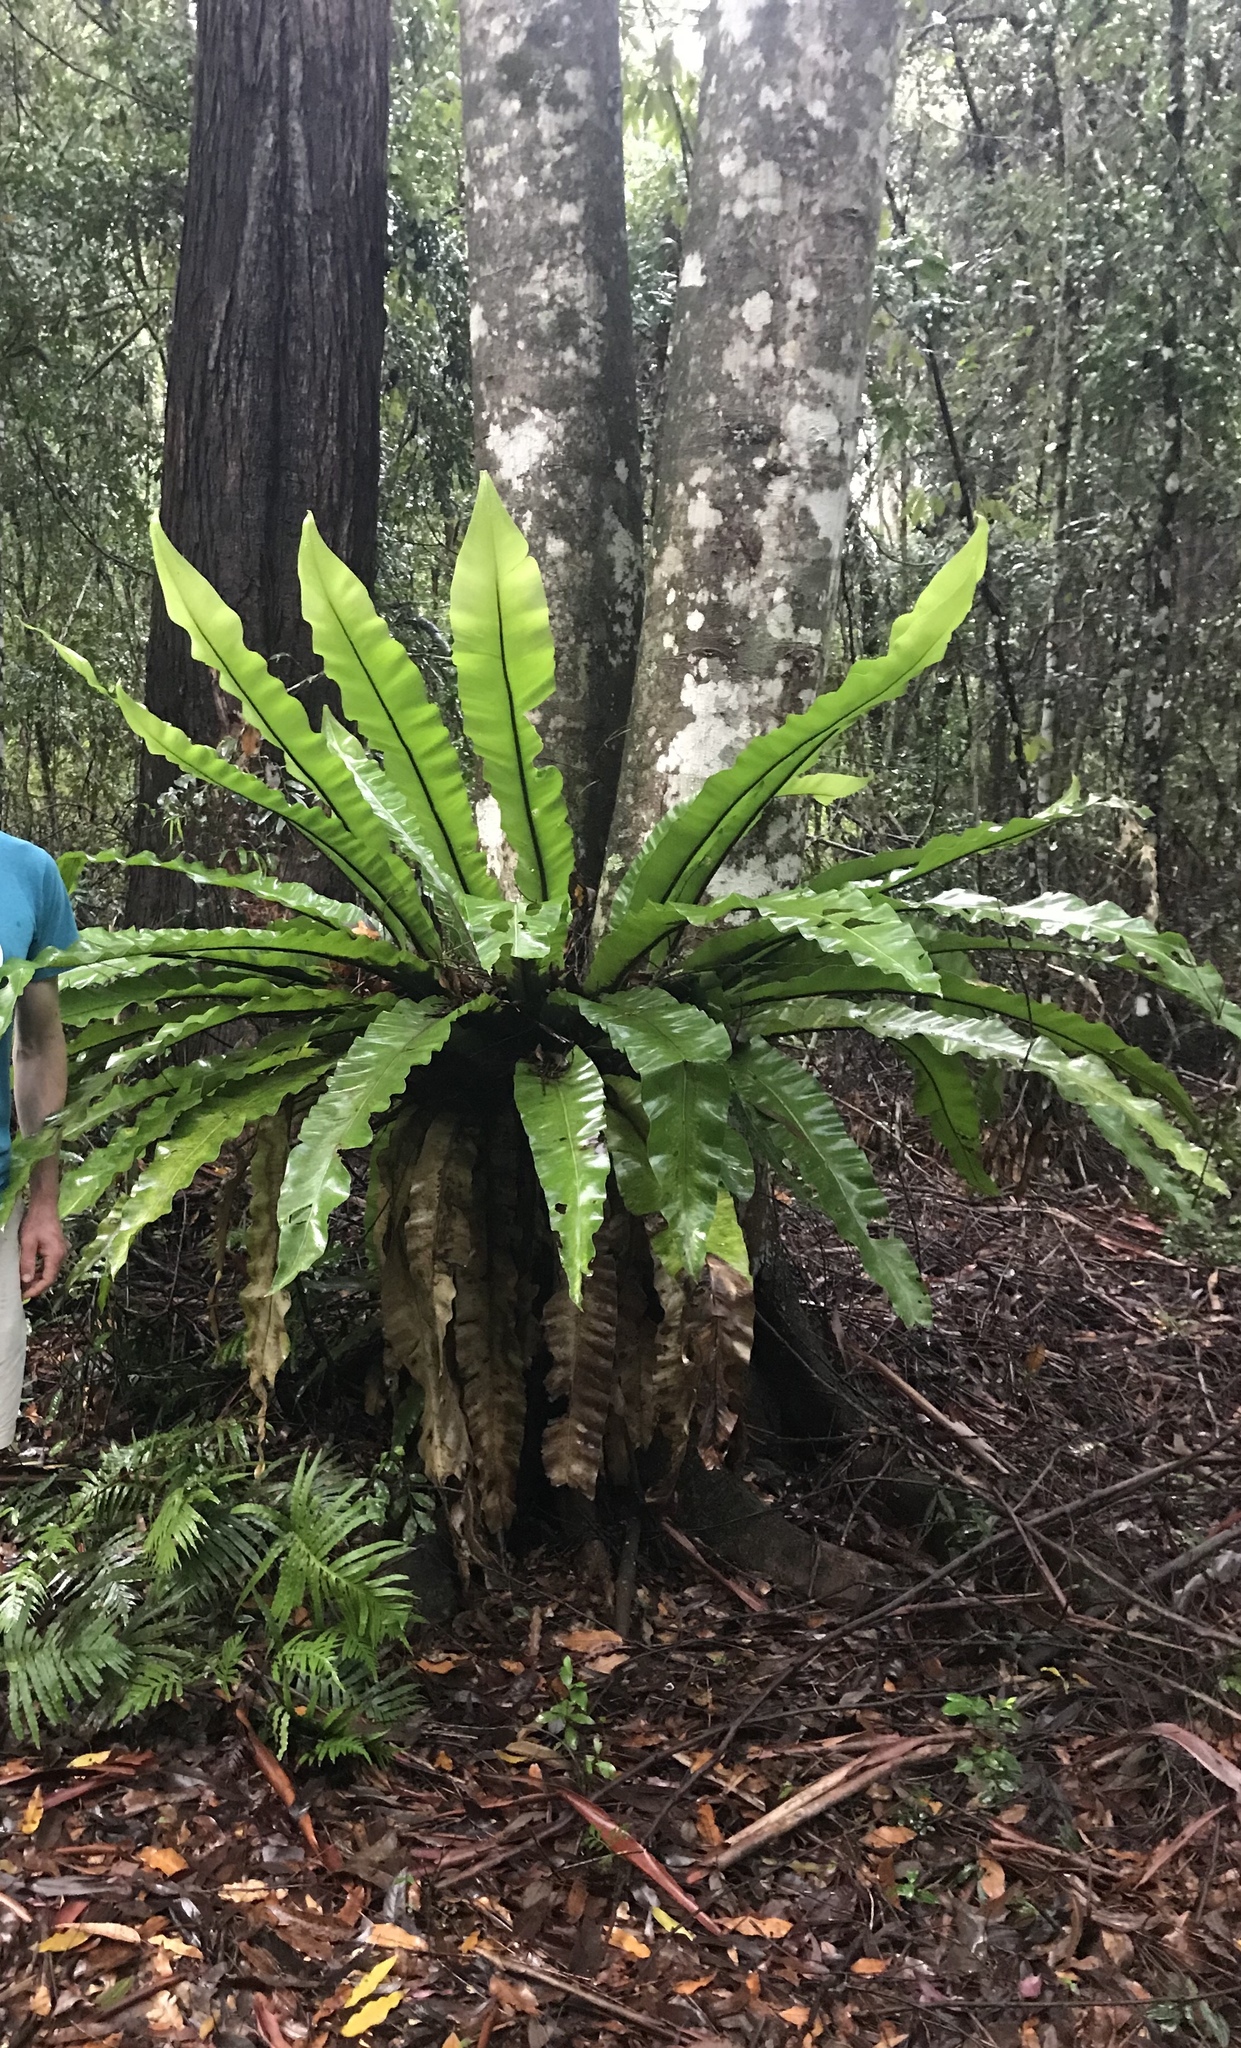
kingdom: Plantae
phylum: Tracheophyta
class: Polypodiopsida
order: Polypodiales
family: Aspleniaceae
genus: Asplenium
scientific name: Asplenium australasicum
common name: Bird's-nest fern
